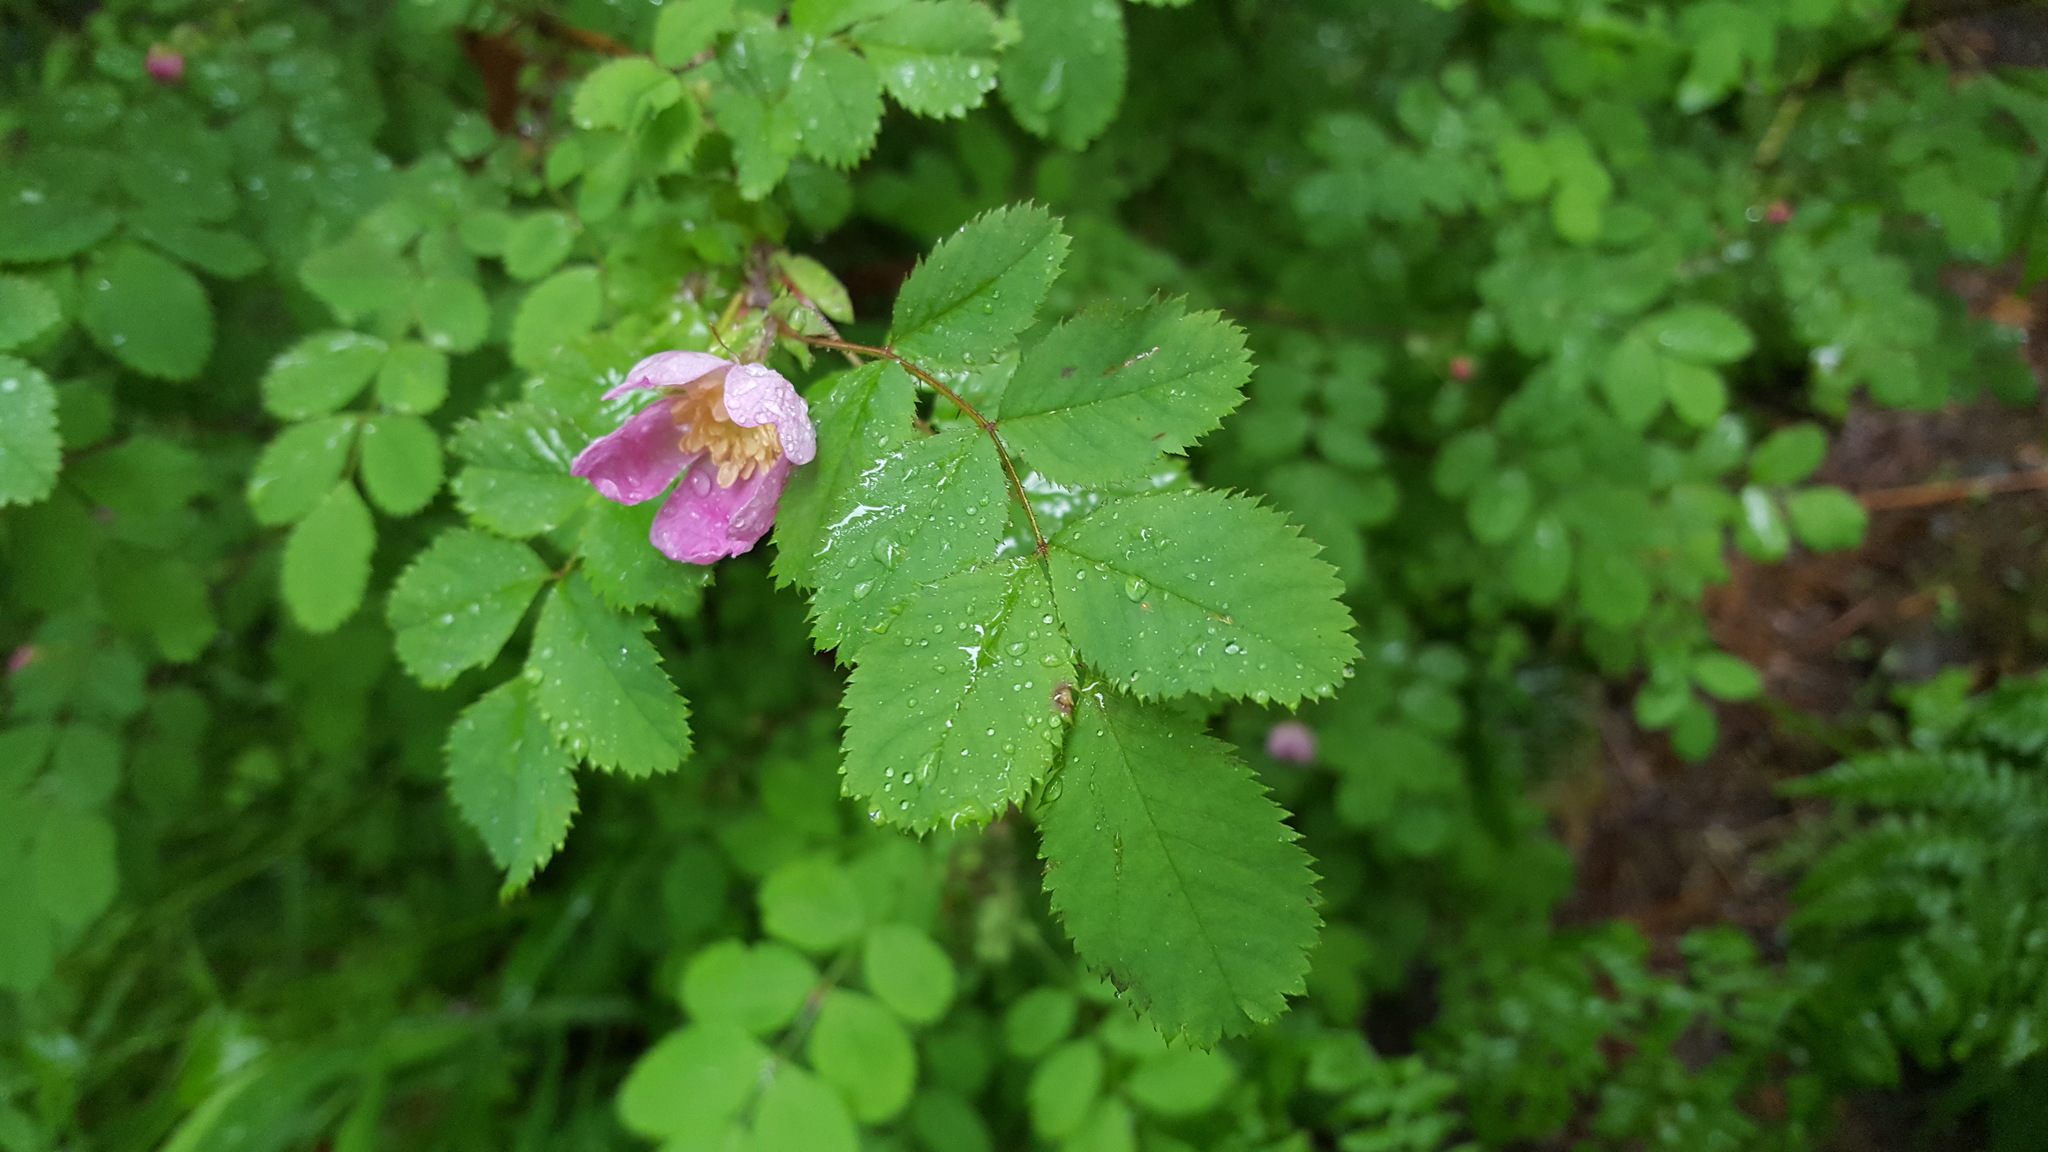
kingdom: Plantae
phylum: Tracheophyta
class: Magnoliopsida
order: Rosales
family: Rosaceae
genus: Rosa
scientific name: Rosa gymnocarpa
